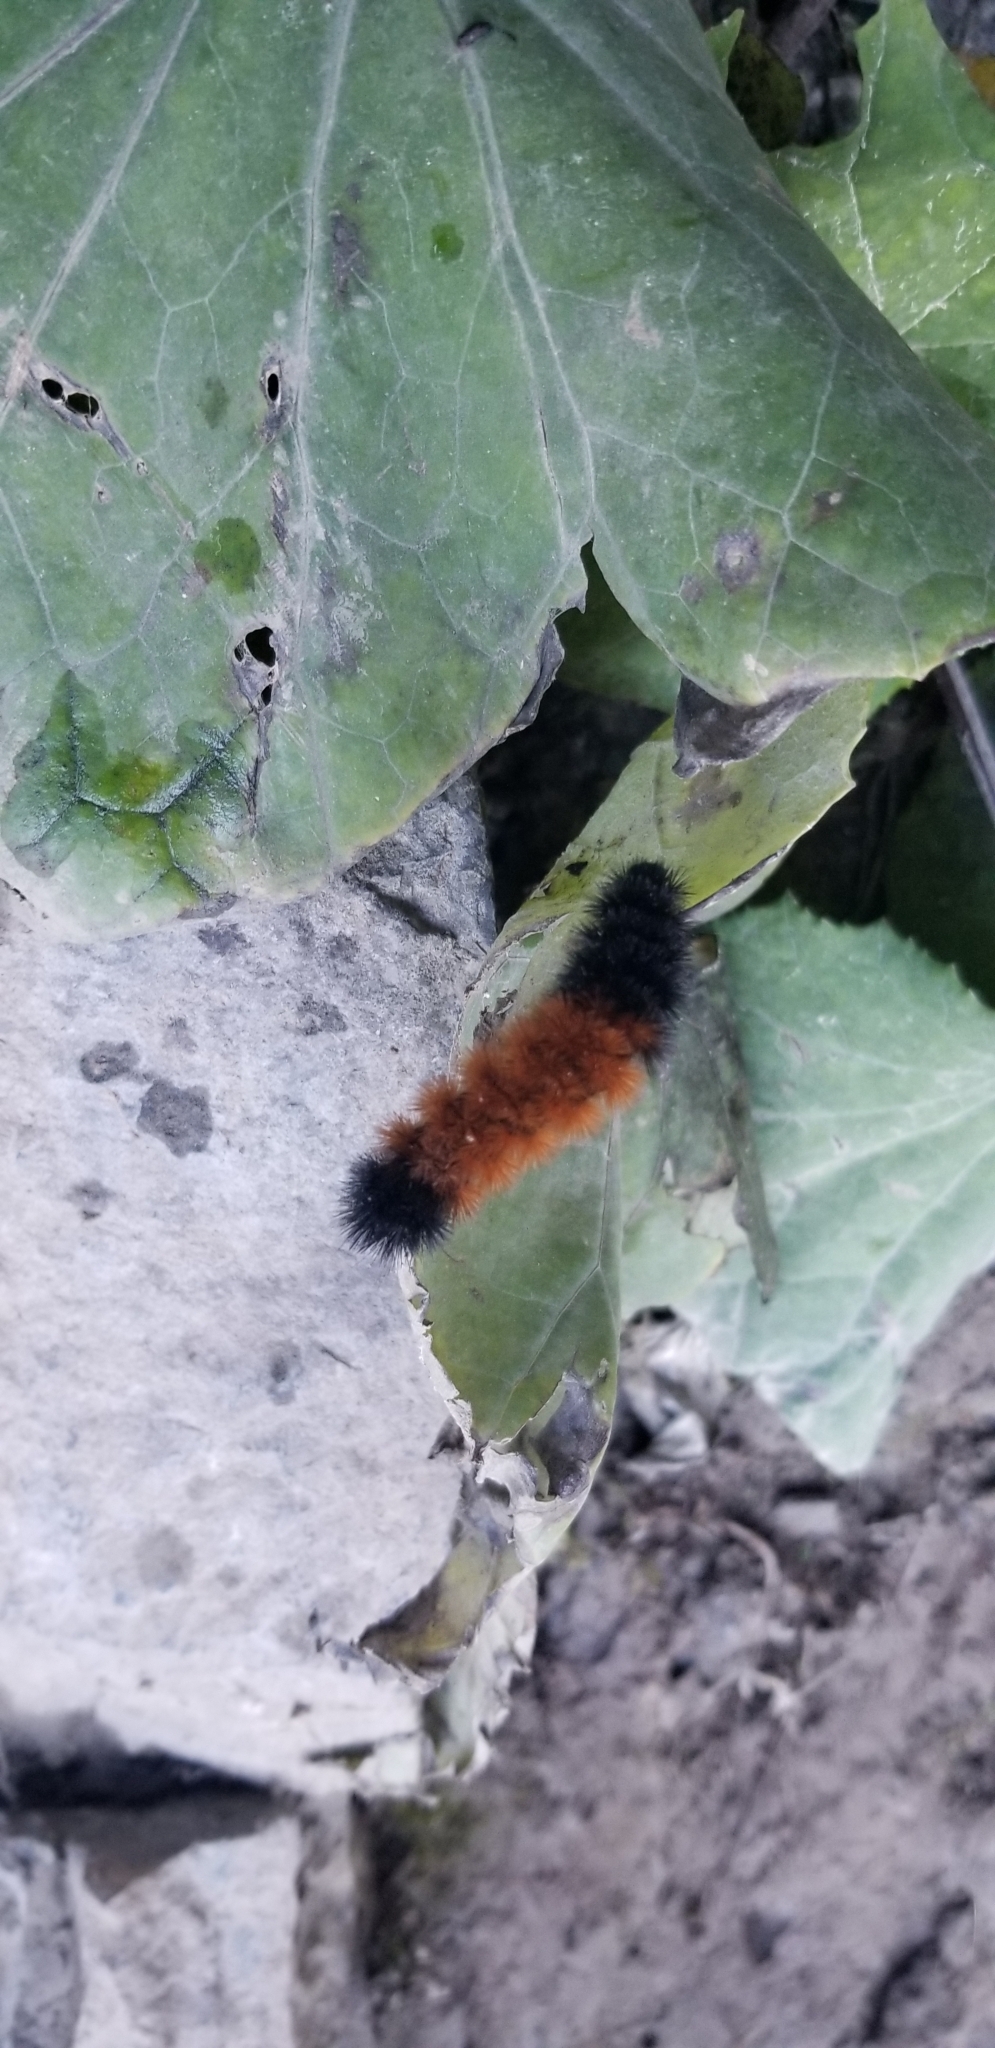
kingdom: Animalia
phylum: Arthropoda
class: Insecta
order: Lepidoptera
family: Erebidae
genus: Pyrrharctia
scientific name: Pyrrharctia isabella
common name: Isabella tiger moth
